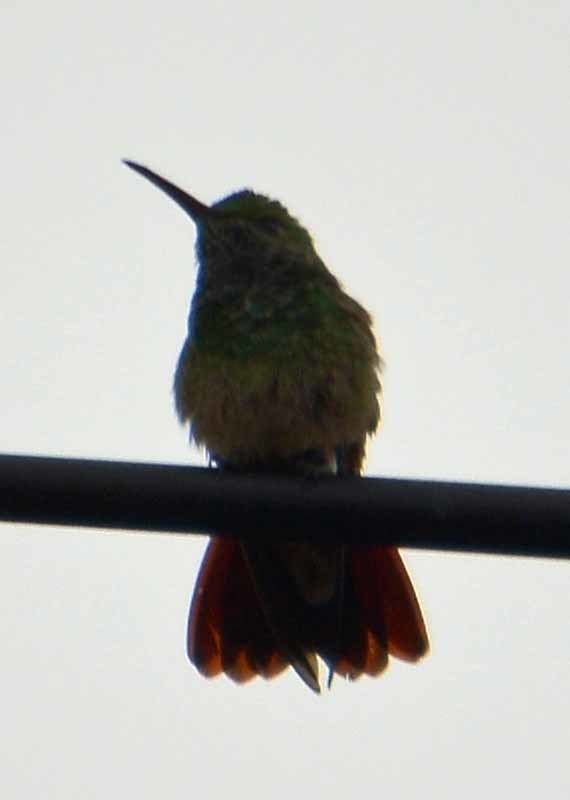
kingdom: Animalia
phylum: Chordata
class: Aves
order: Apodiformes
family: Trochilidae
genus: Saucerottia
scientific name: Saucerottia beryllina
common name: Berylline hummingbird
